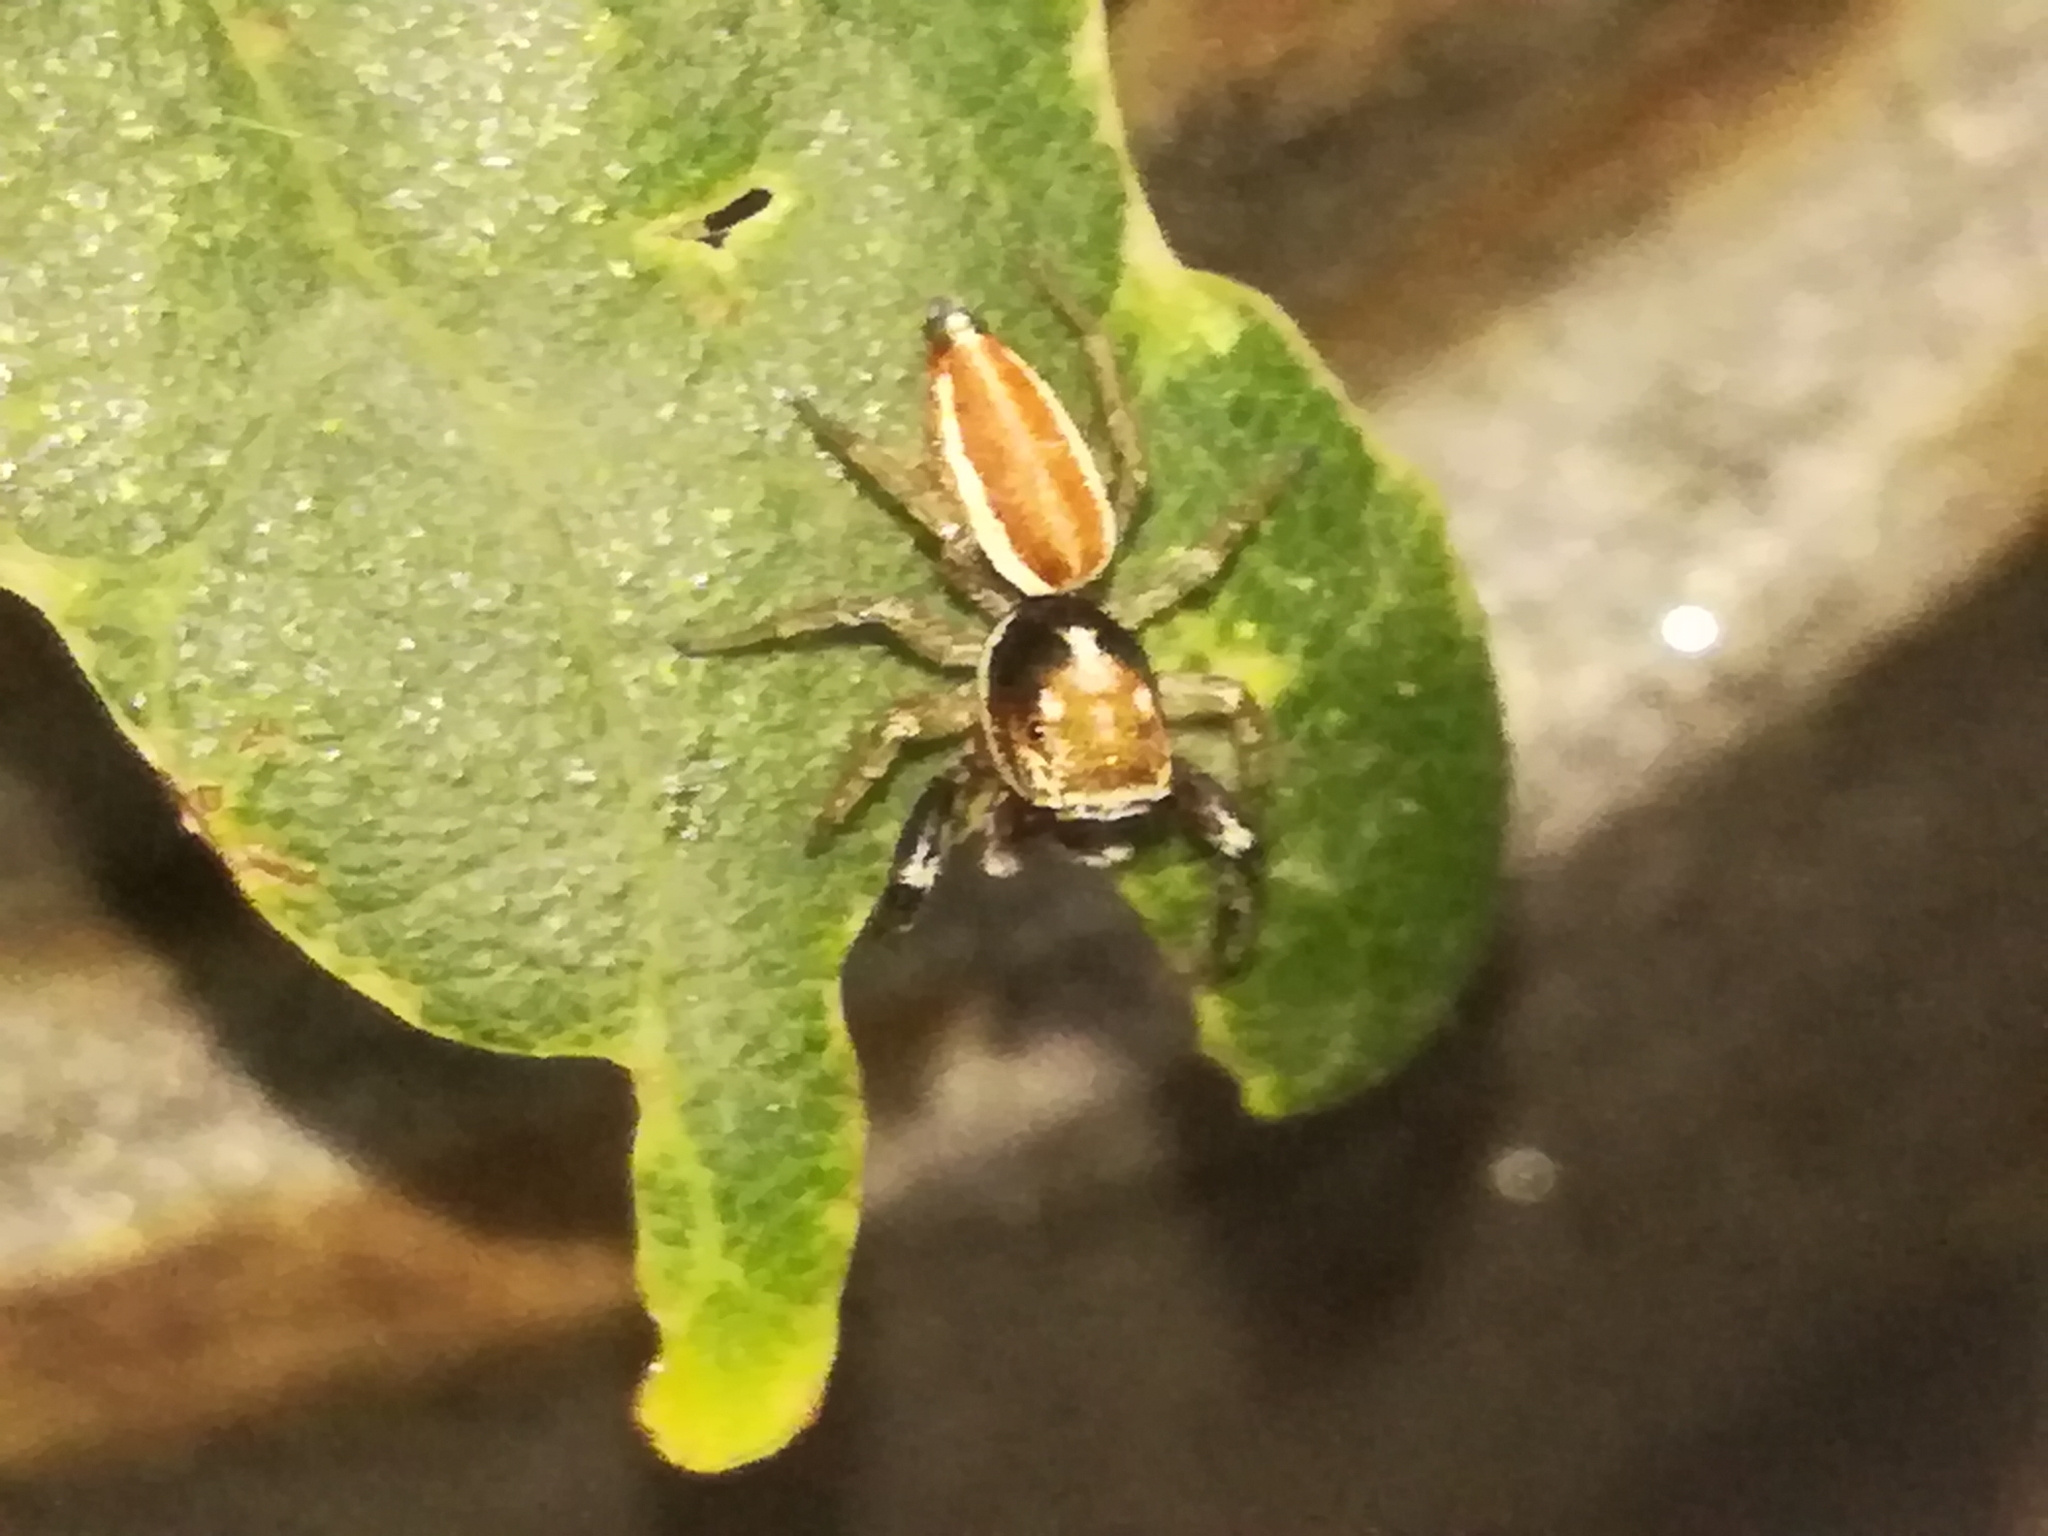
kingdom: Animalia
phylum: Arthropoda
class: Arachnida
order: Araneae
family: Salticidae
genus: Icius
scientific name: Icius hamatus
